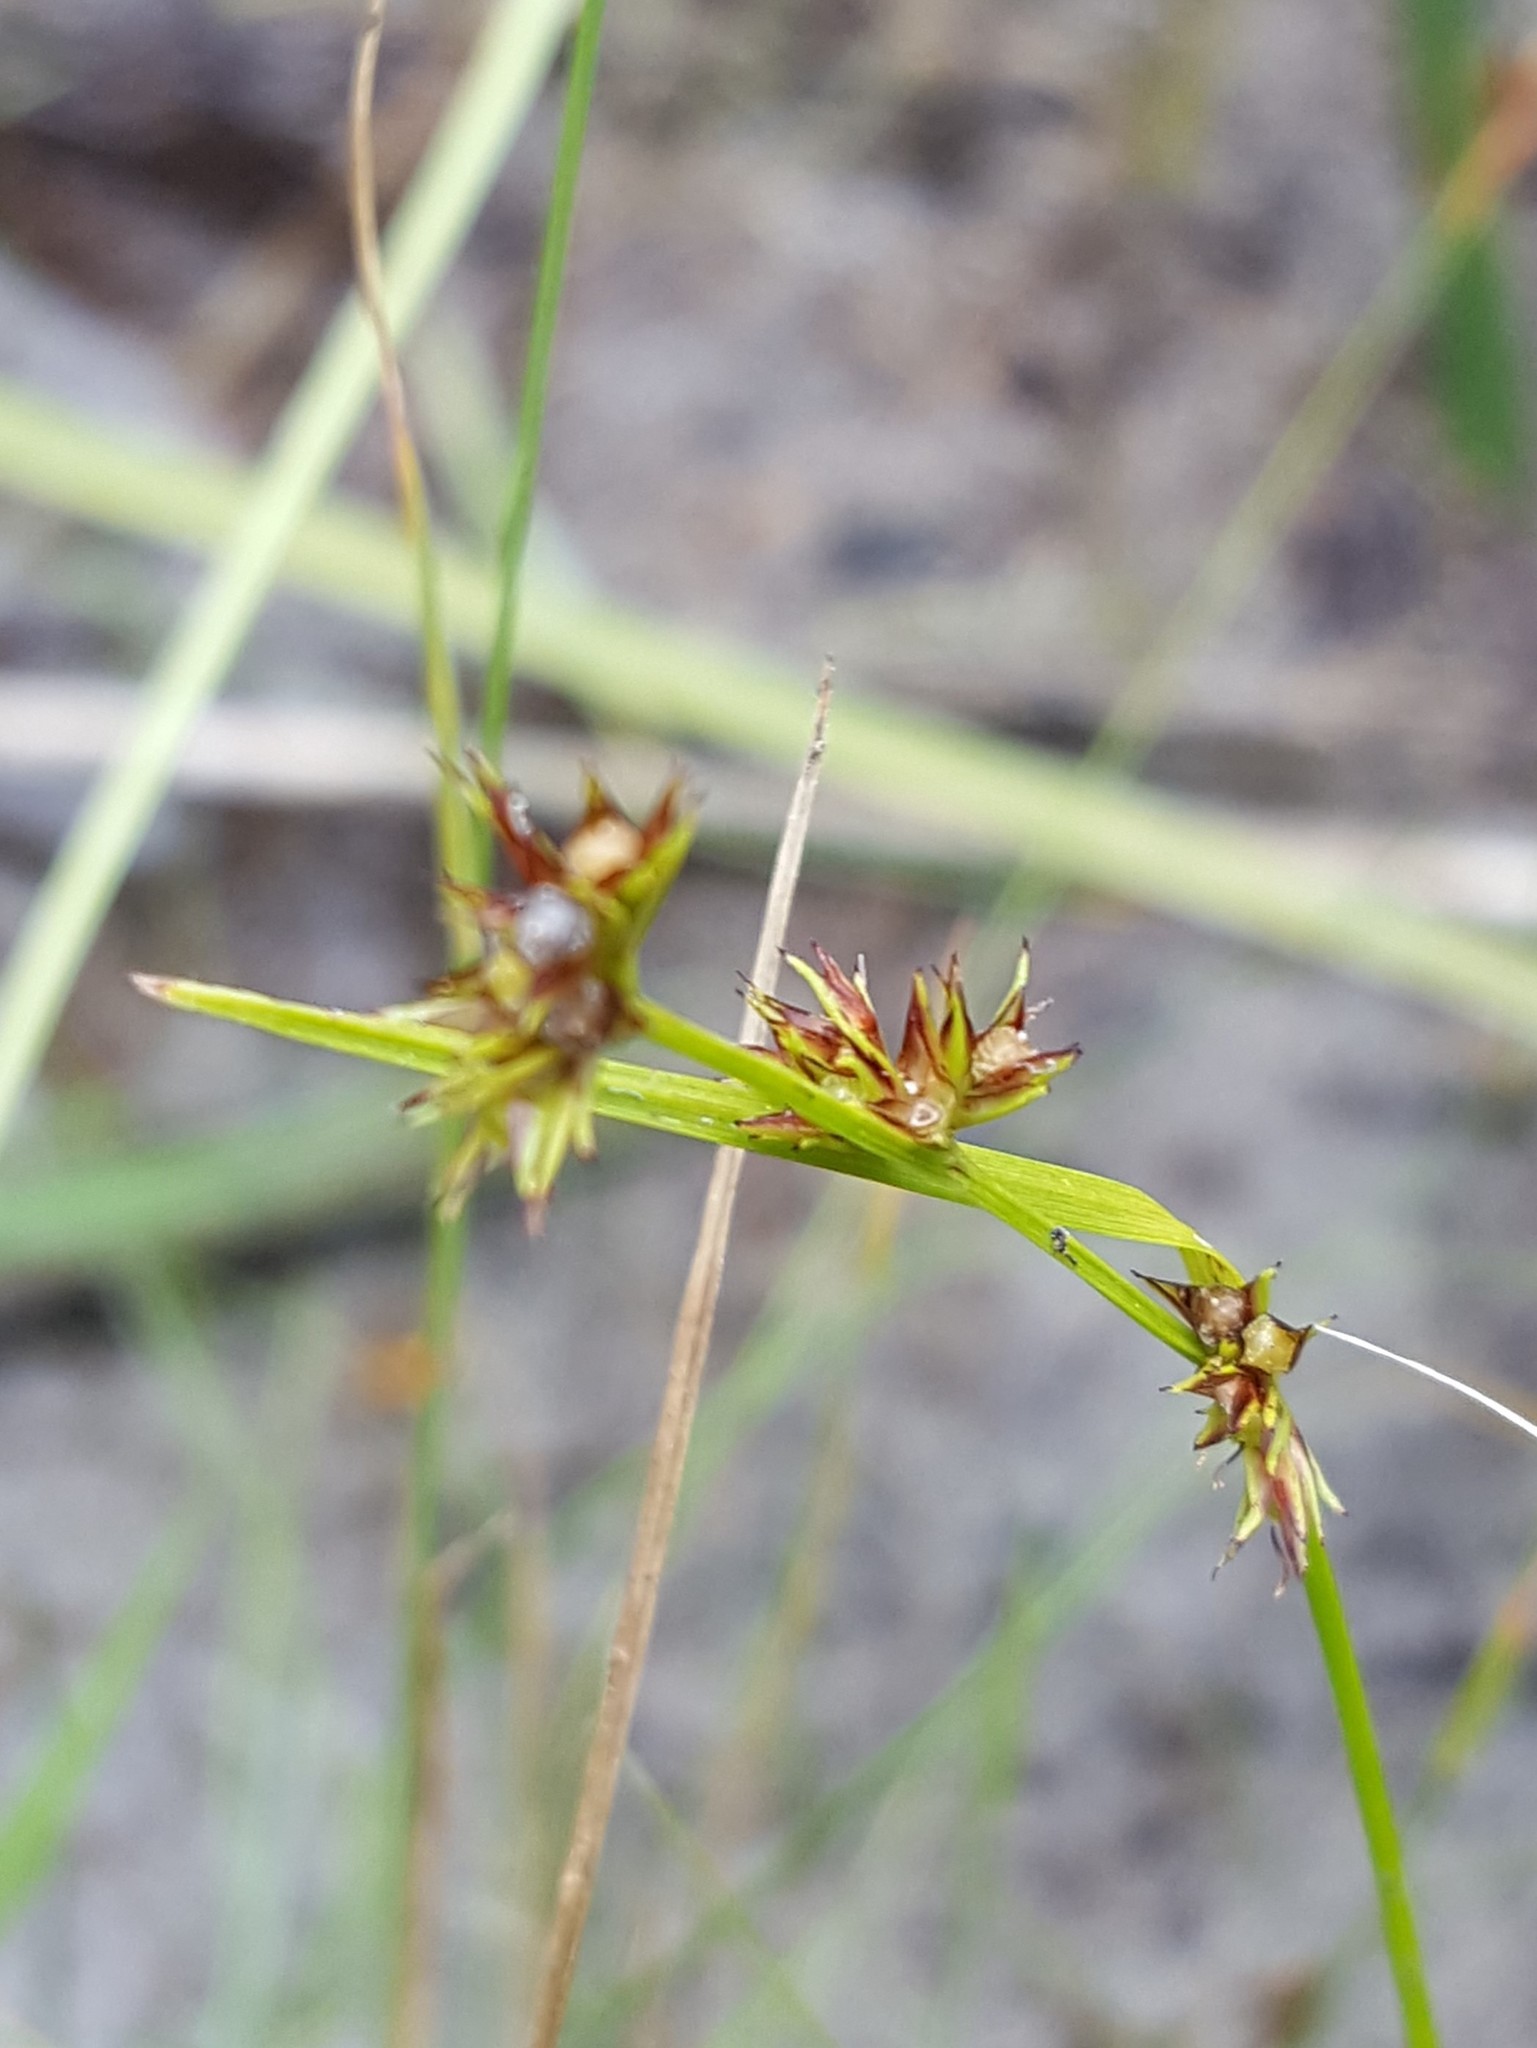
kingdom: Plantae
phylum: Tracheophyta
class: Liliopsida
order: Poales
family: Cyperaceae
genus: Scleria
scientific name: Scleria verticillata
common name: Low nutrush
